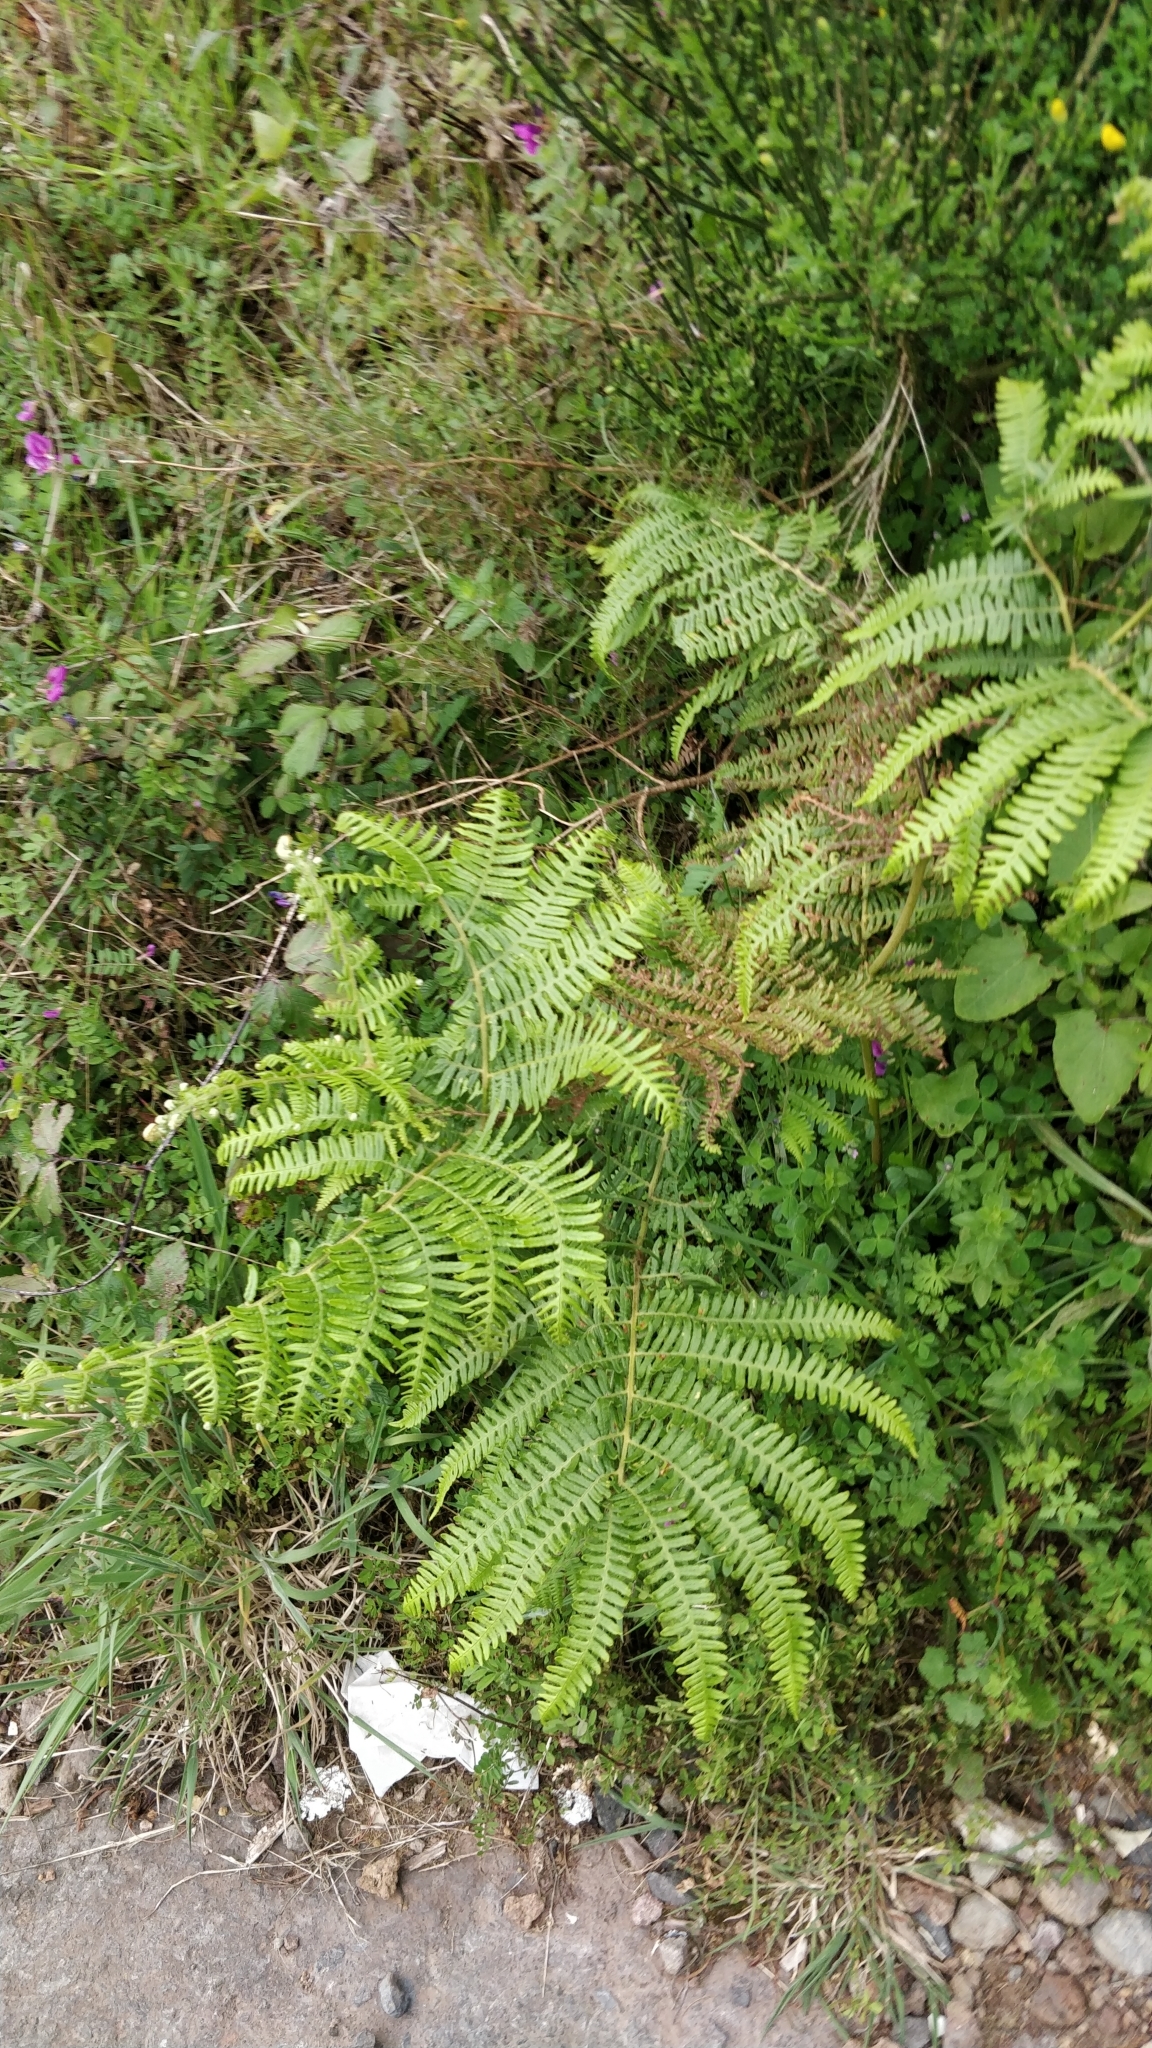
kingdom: Plantae
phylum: Tracheophyta
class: Polypodiopsida
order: Polypodiales
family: Dennstaedtiaceae
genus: Pteridium
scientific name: Pteridium aquilinum
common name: Bracken
